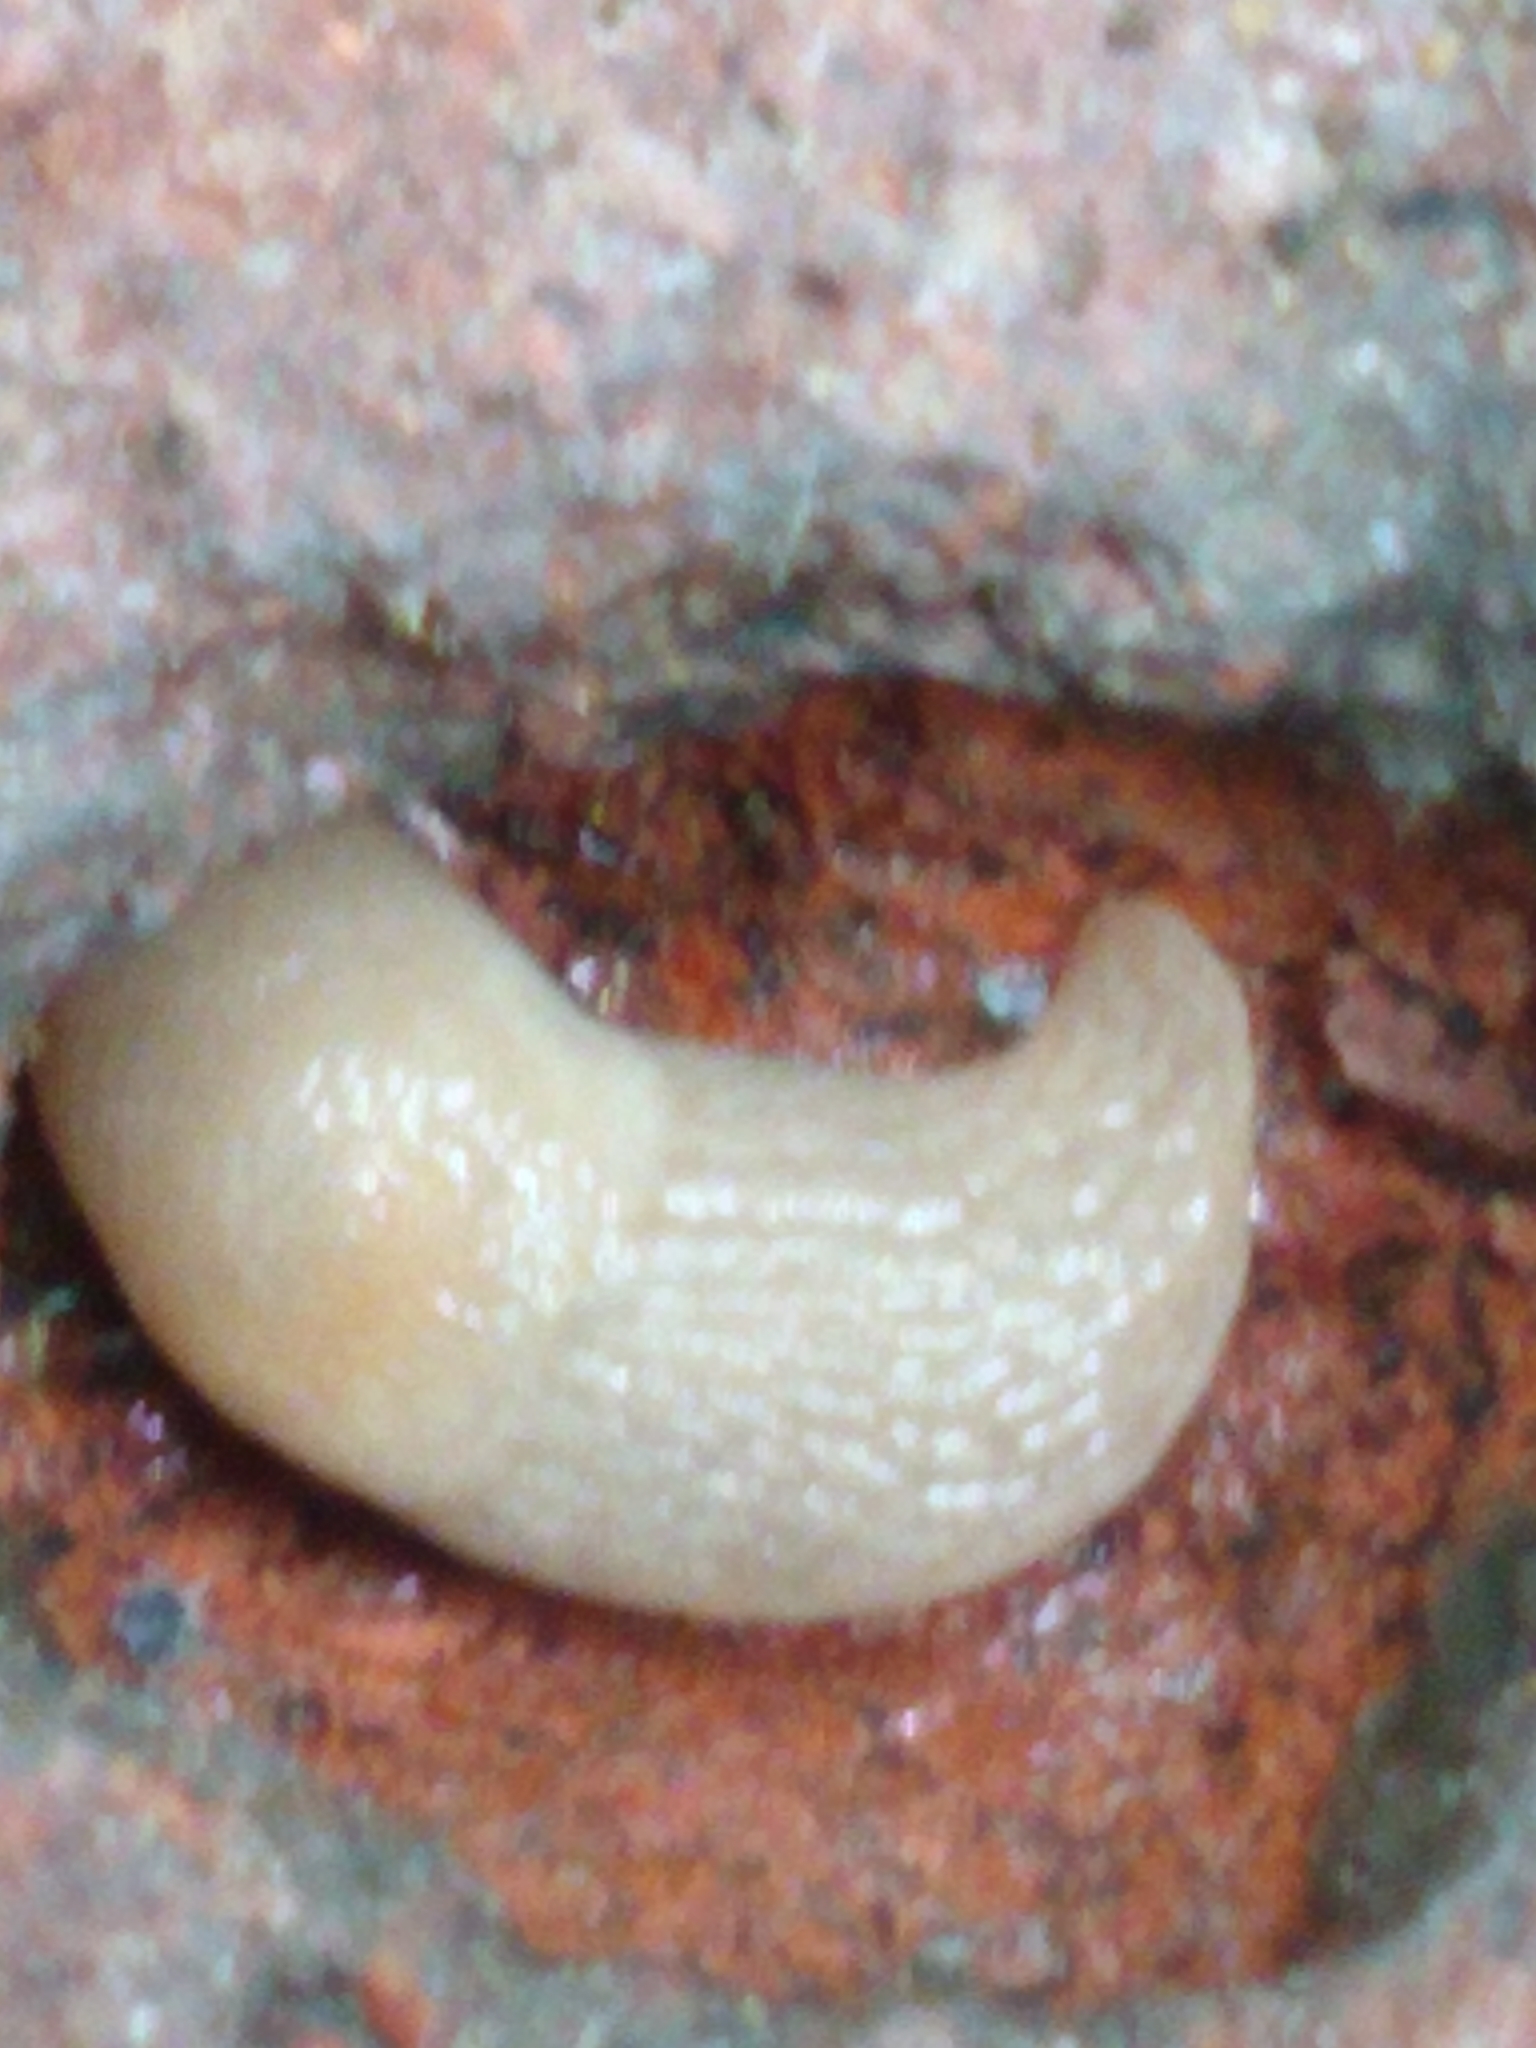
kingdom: Animalia
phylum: Mollusca
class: Gastropoda
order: Stylommatophora
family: Agriolimacidae
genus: Deroceras
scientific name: Deroceras reticulatum
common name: Gray field slug
